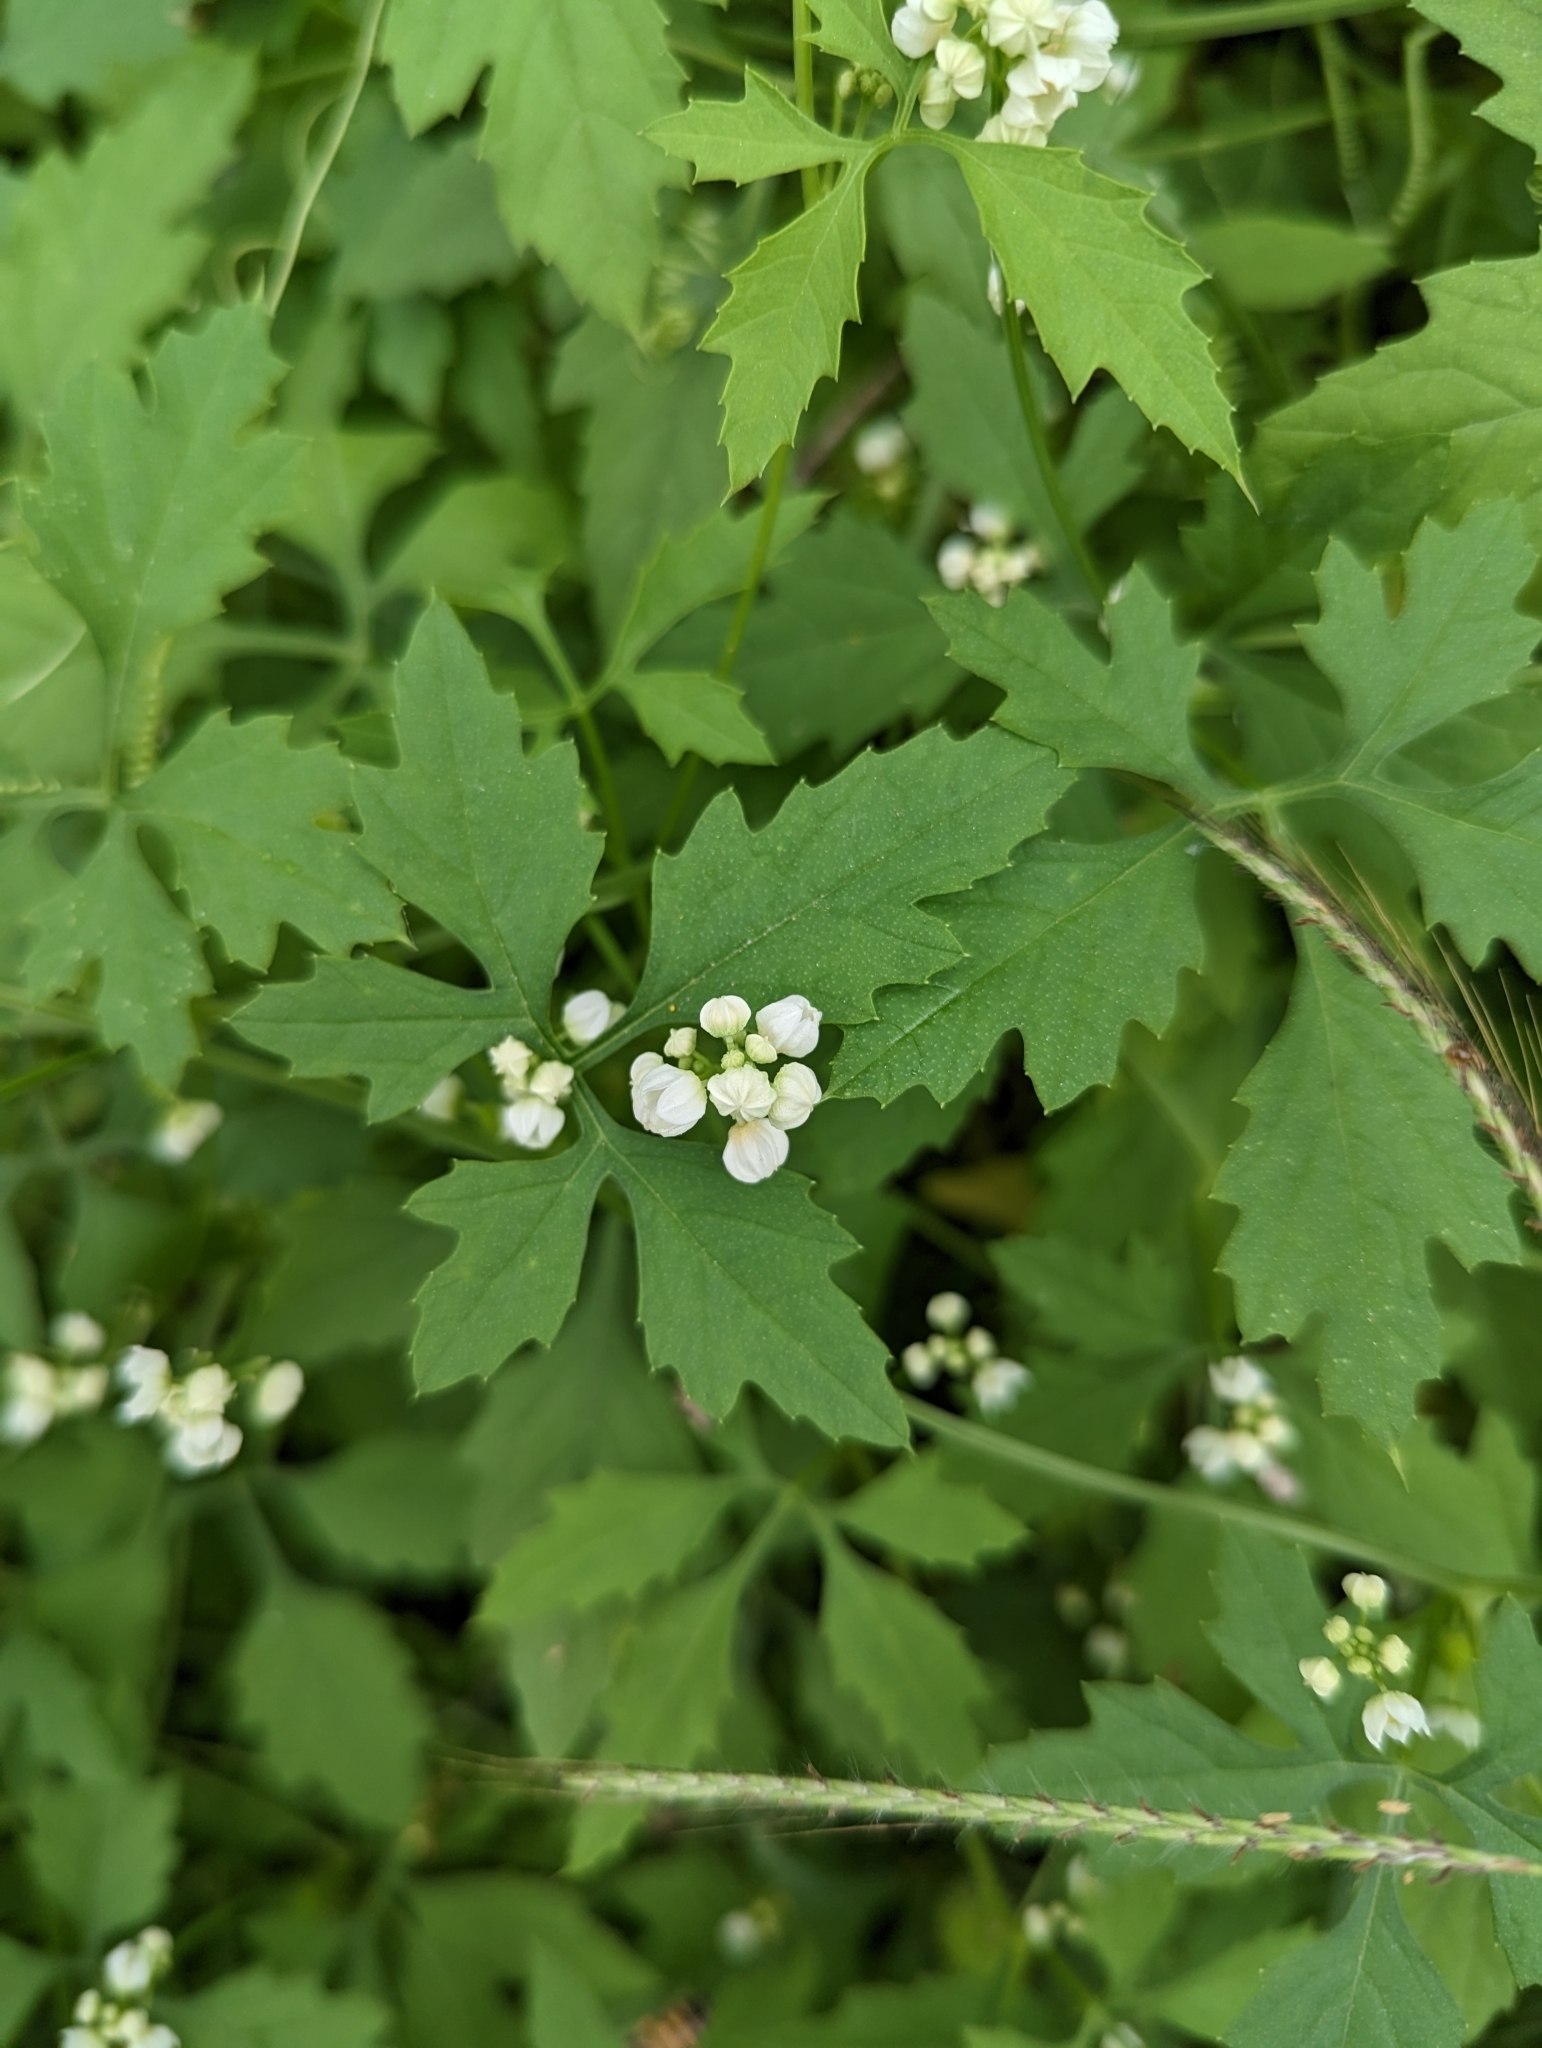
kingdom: Plantae
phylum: Tracheophyta
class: Magnoliopsida
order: Cucurbitales
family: Cucurbitaceae
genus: Cyclanthera
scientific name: Cyclanthera naudiniana
